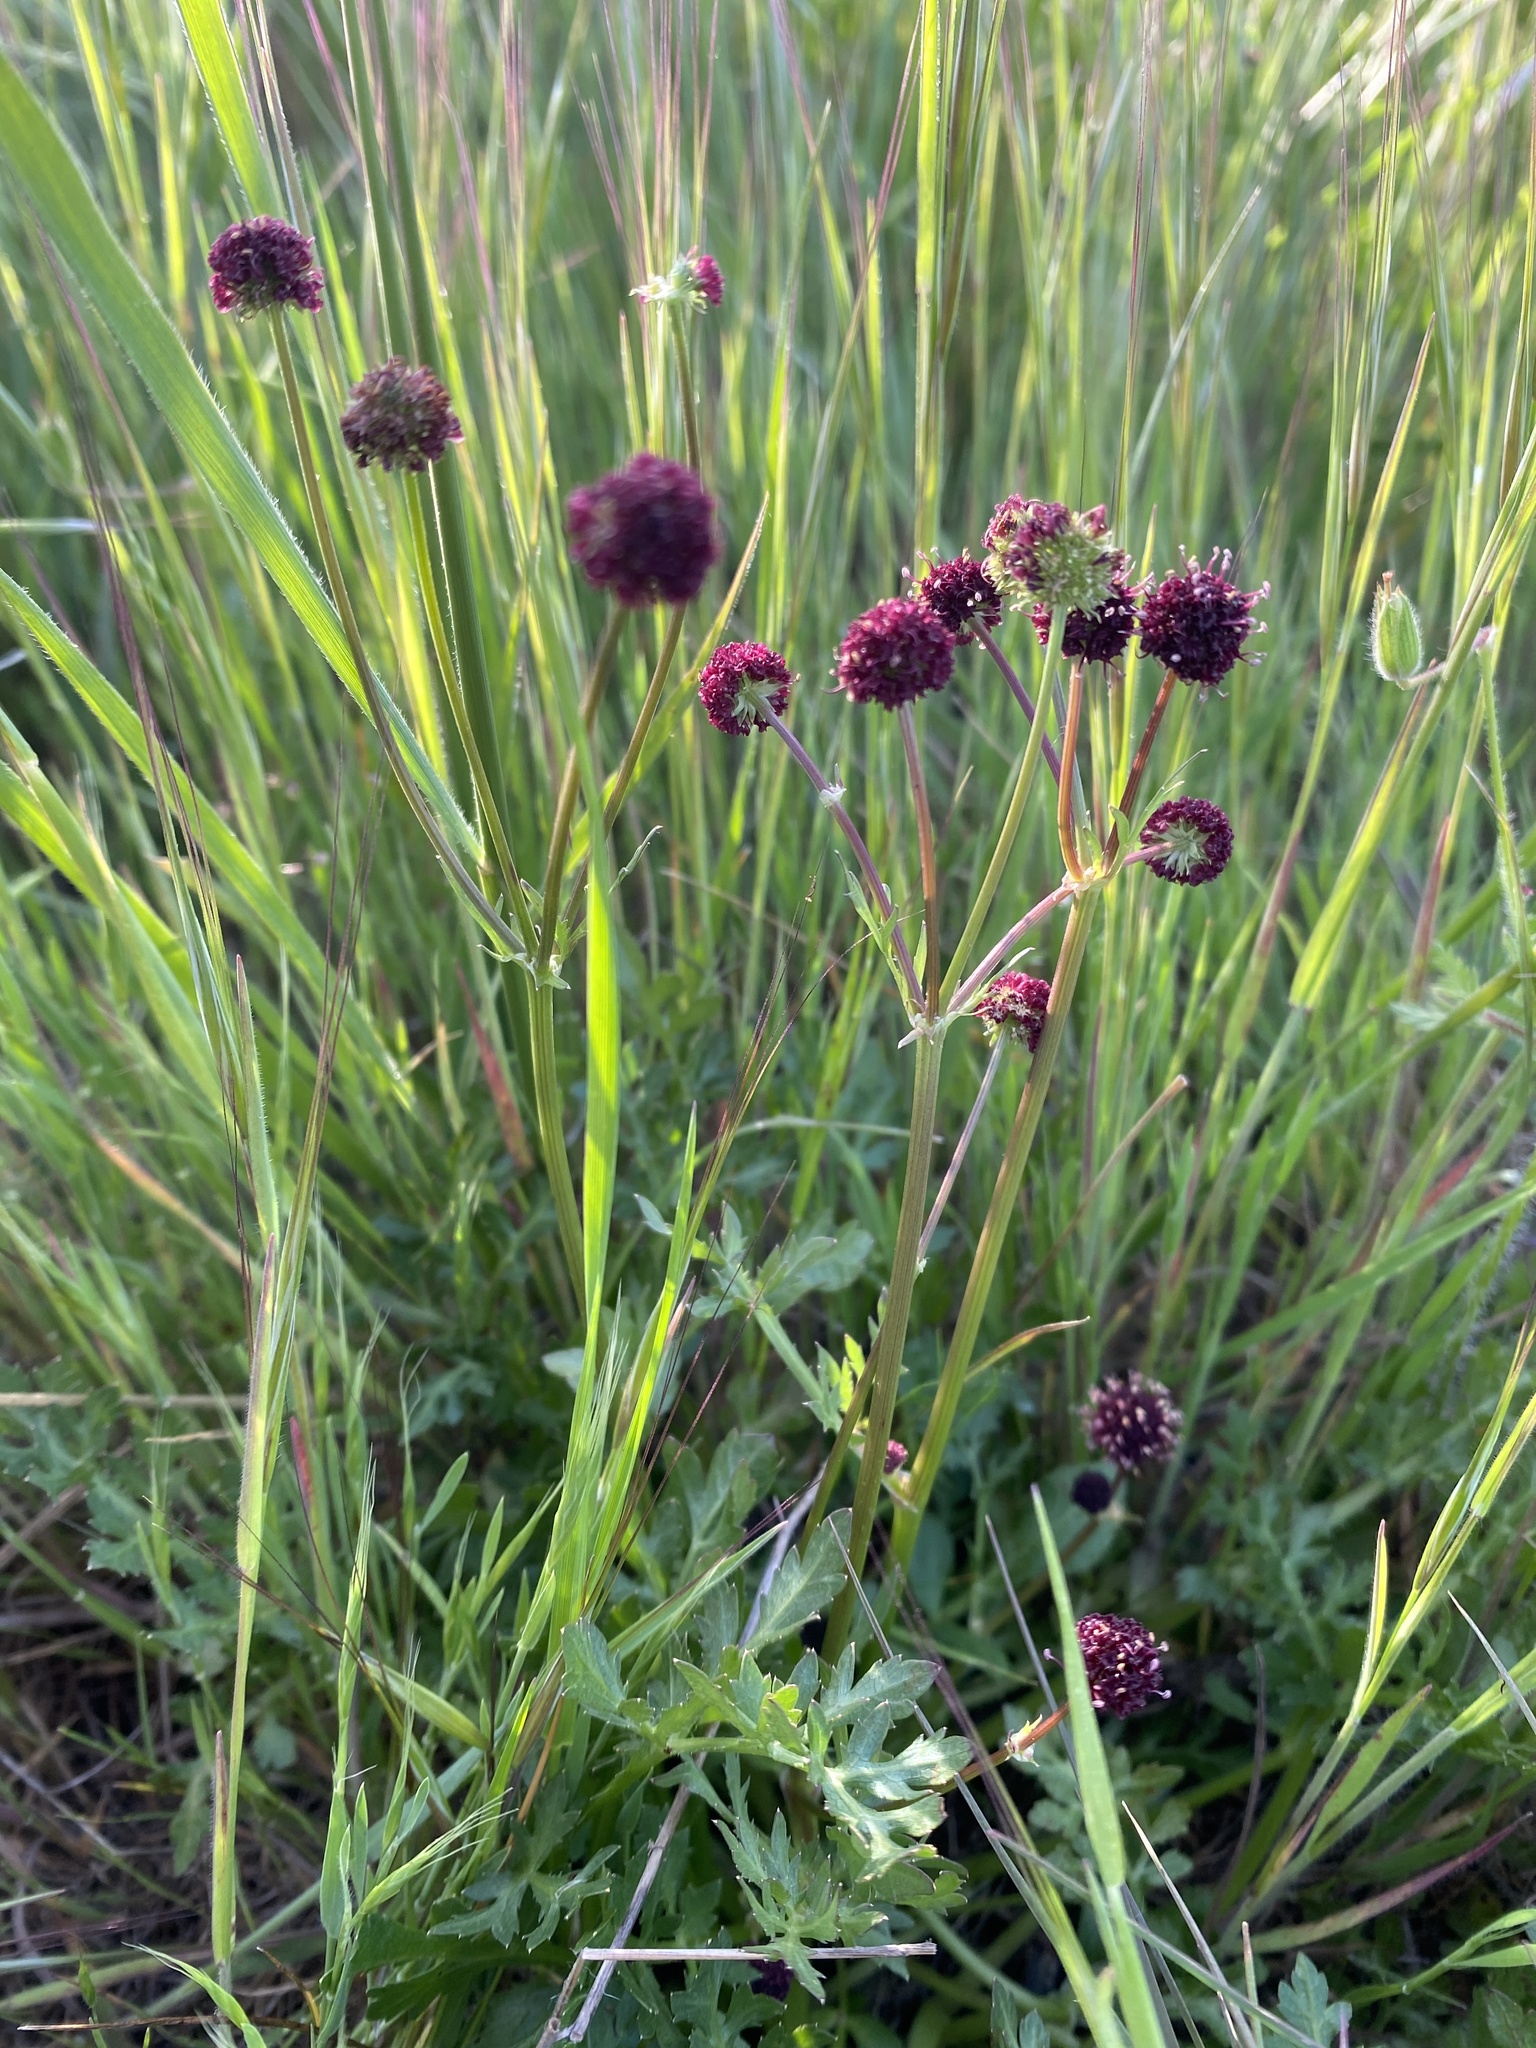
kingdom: Plantae
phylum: Tracheophyta
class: Magnoliopsida
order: Apiales
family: Apiaceae
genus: Sanicula
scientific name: Sanicula bipinnatifida
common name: Shoe-buttons
